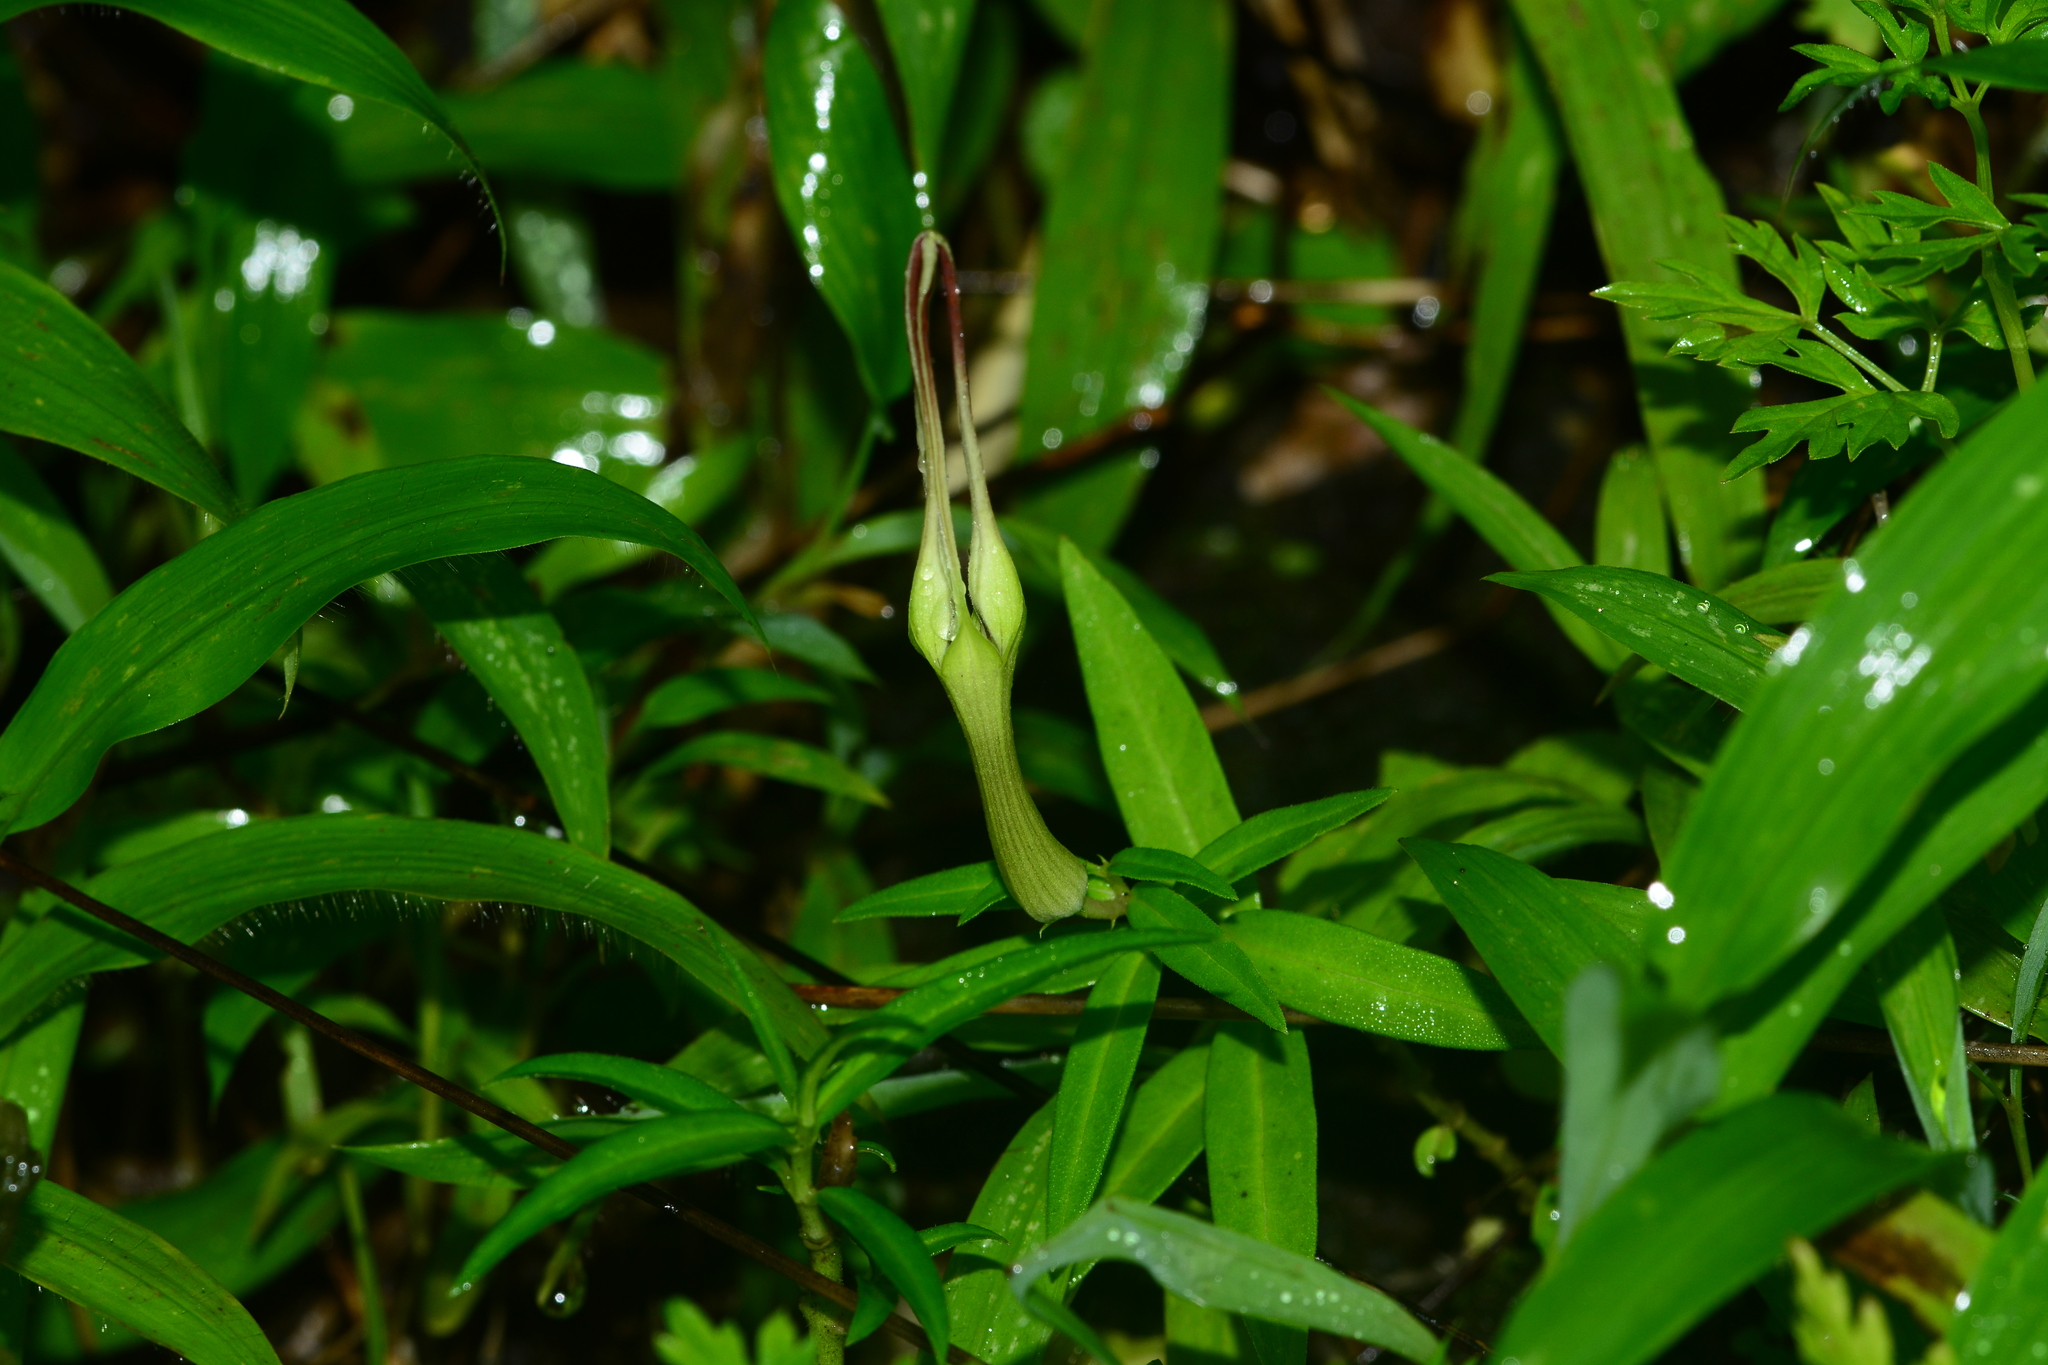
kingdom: Plantae
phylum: Tracheophyta
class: Magnoliopsida
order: Gentianales
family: Apocynaceae
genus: Ceropegia
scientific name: Ceropegia attenuata
